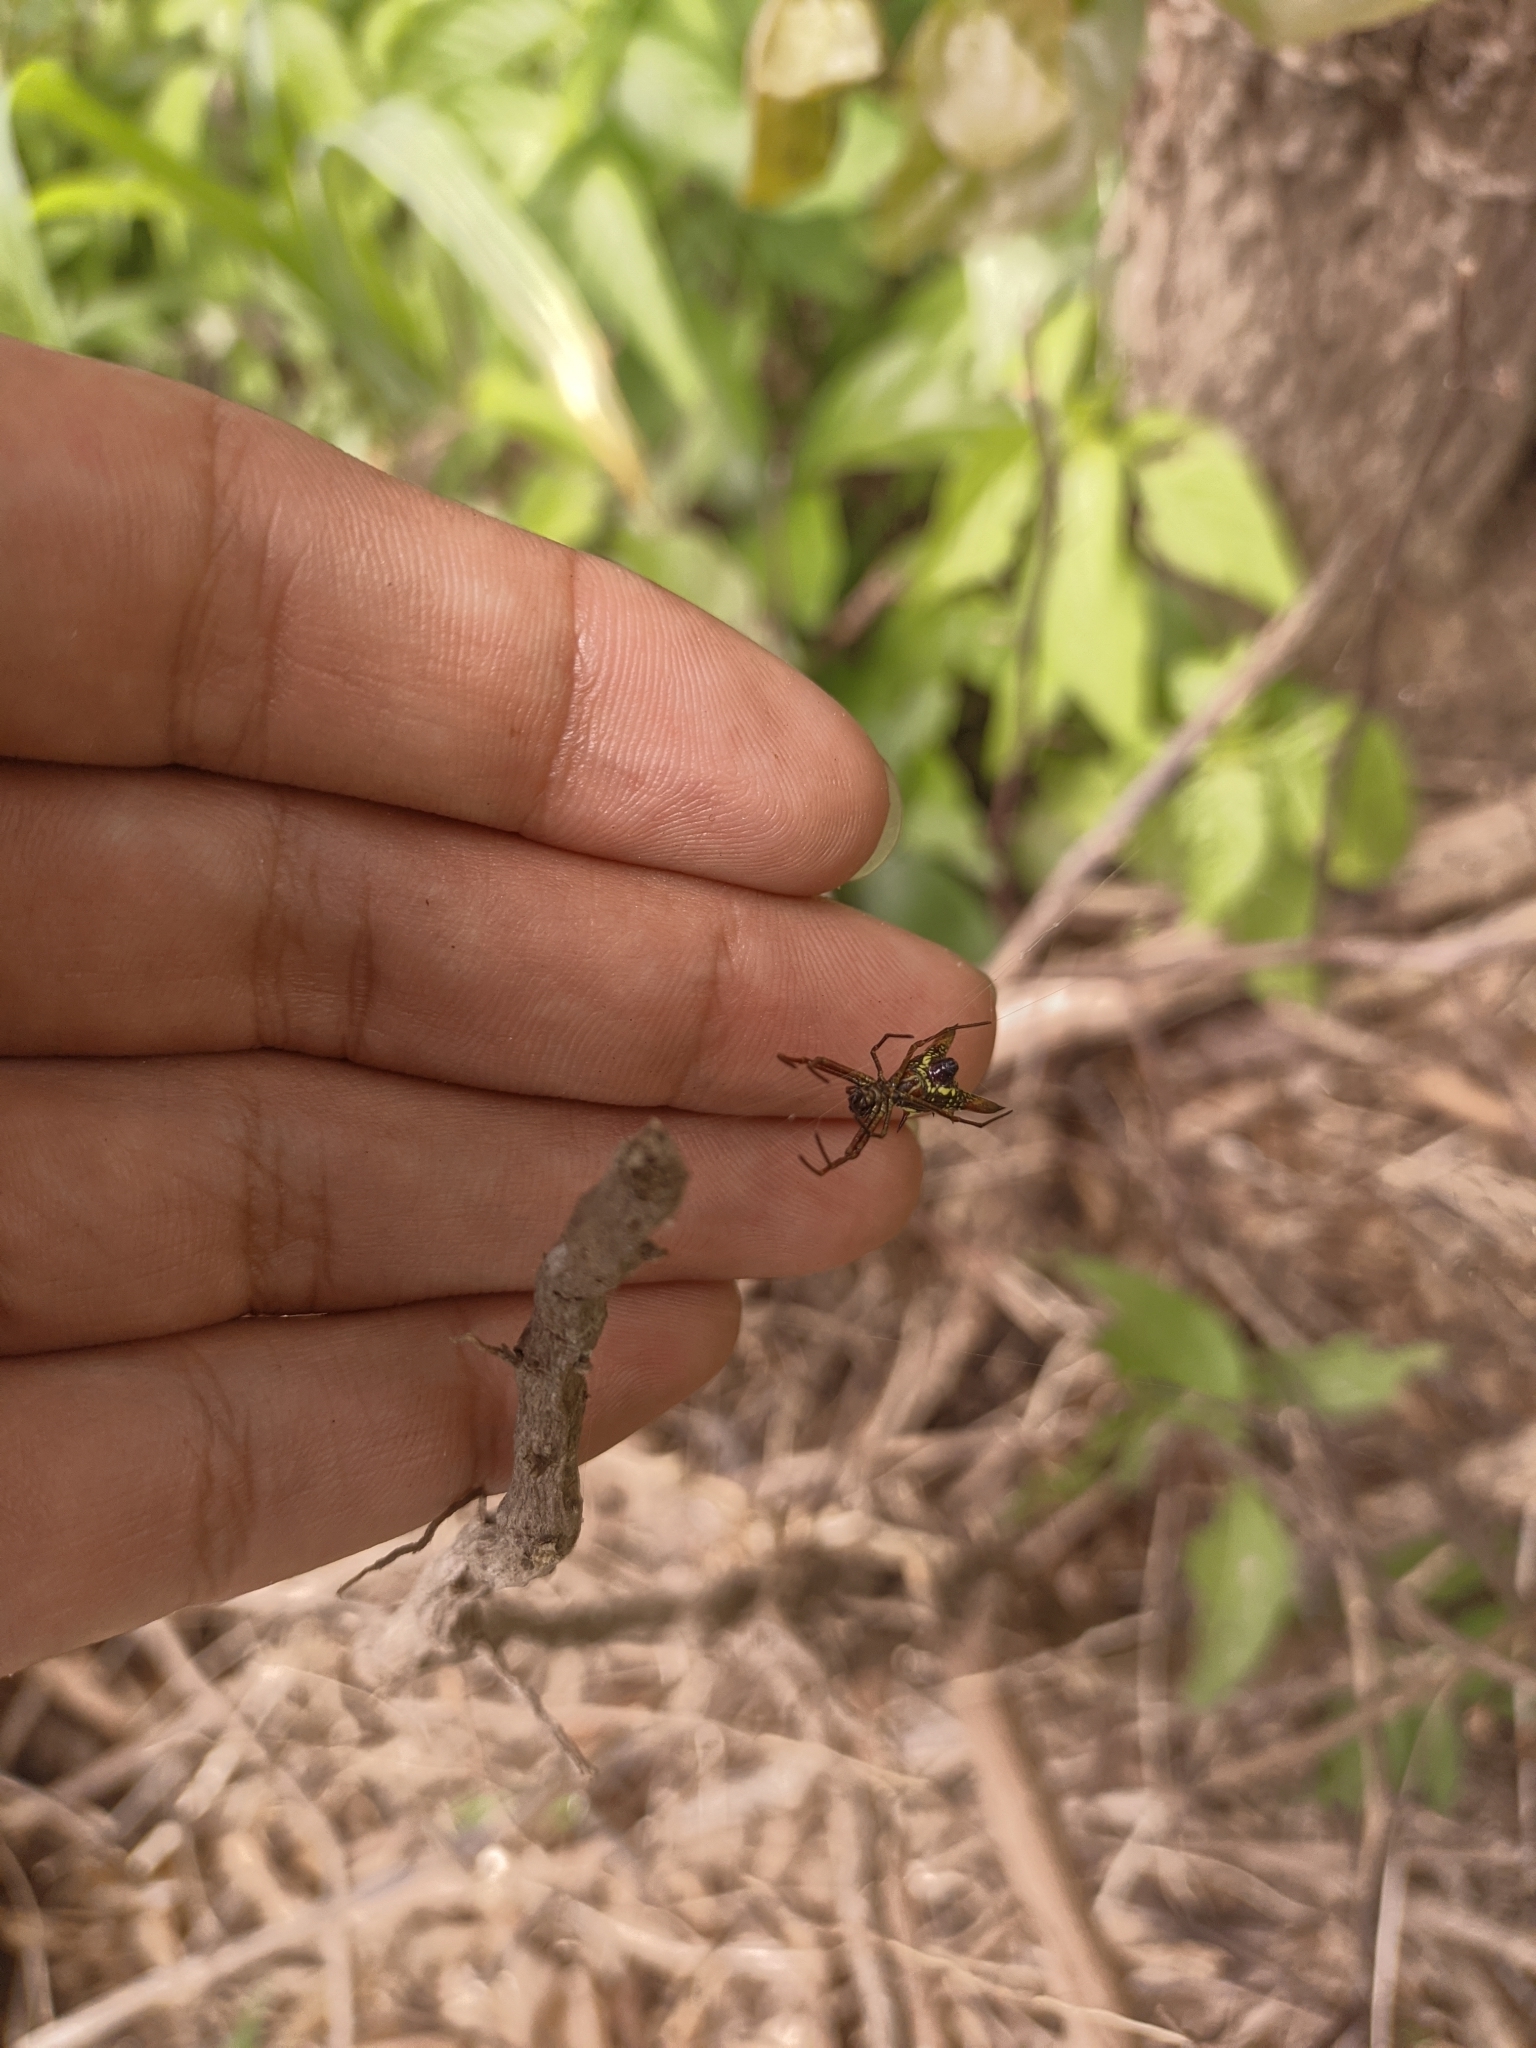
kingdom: Animalia
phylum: Arthropoda
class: Arachnida
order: Araneae
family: Araneidae
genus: Micrathena
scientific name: Micrathena sexspinosa
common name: Orb weavers
